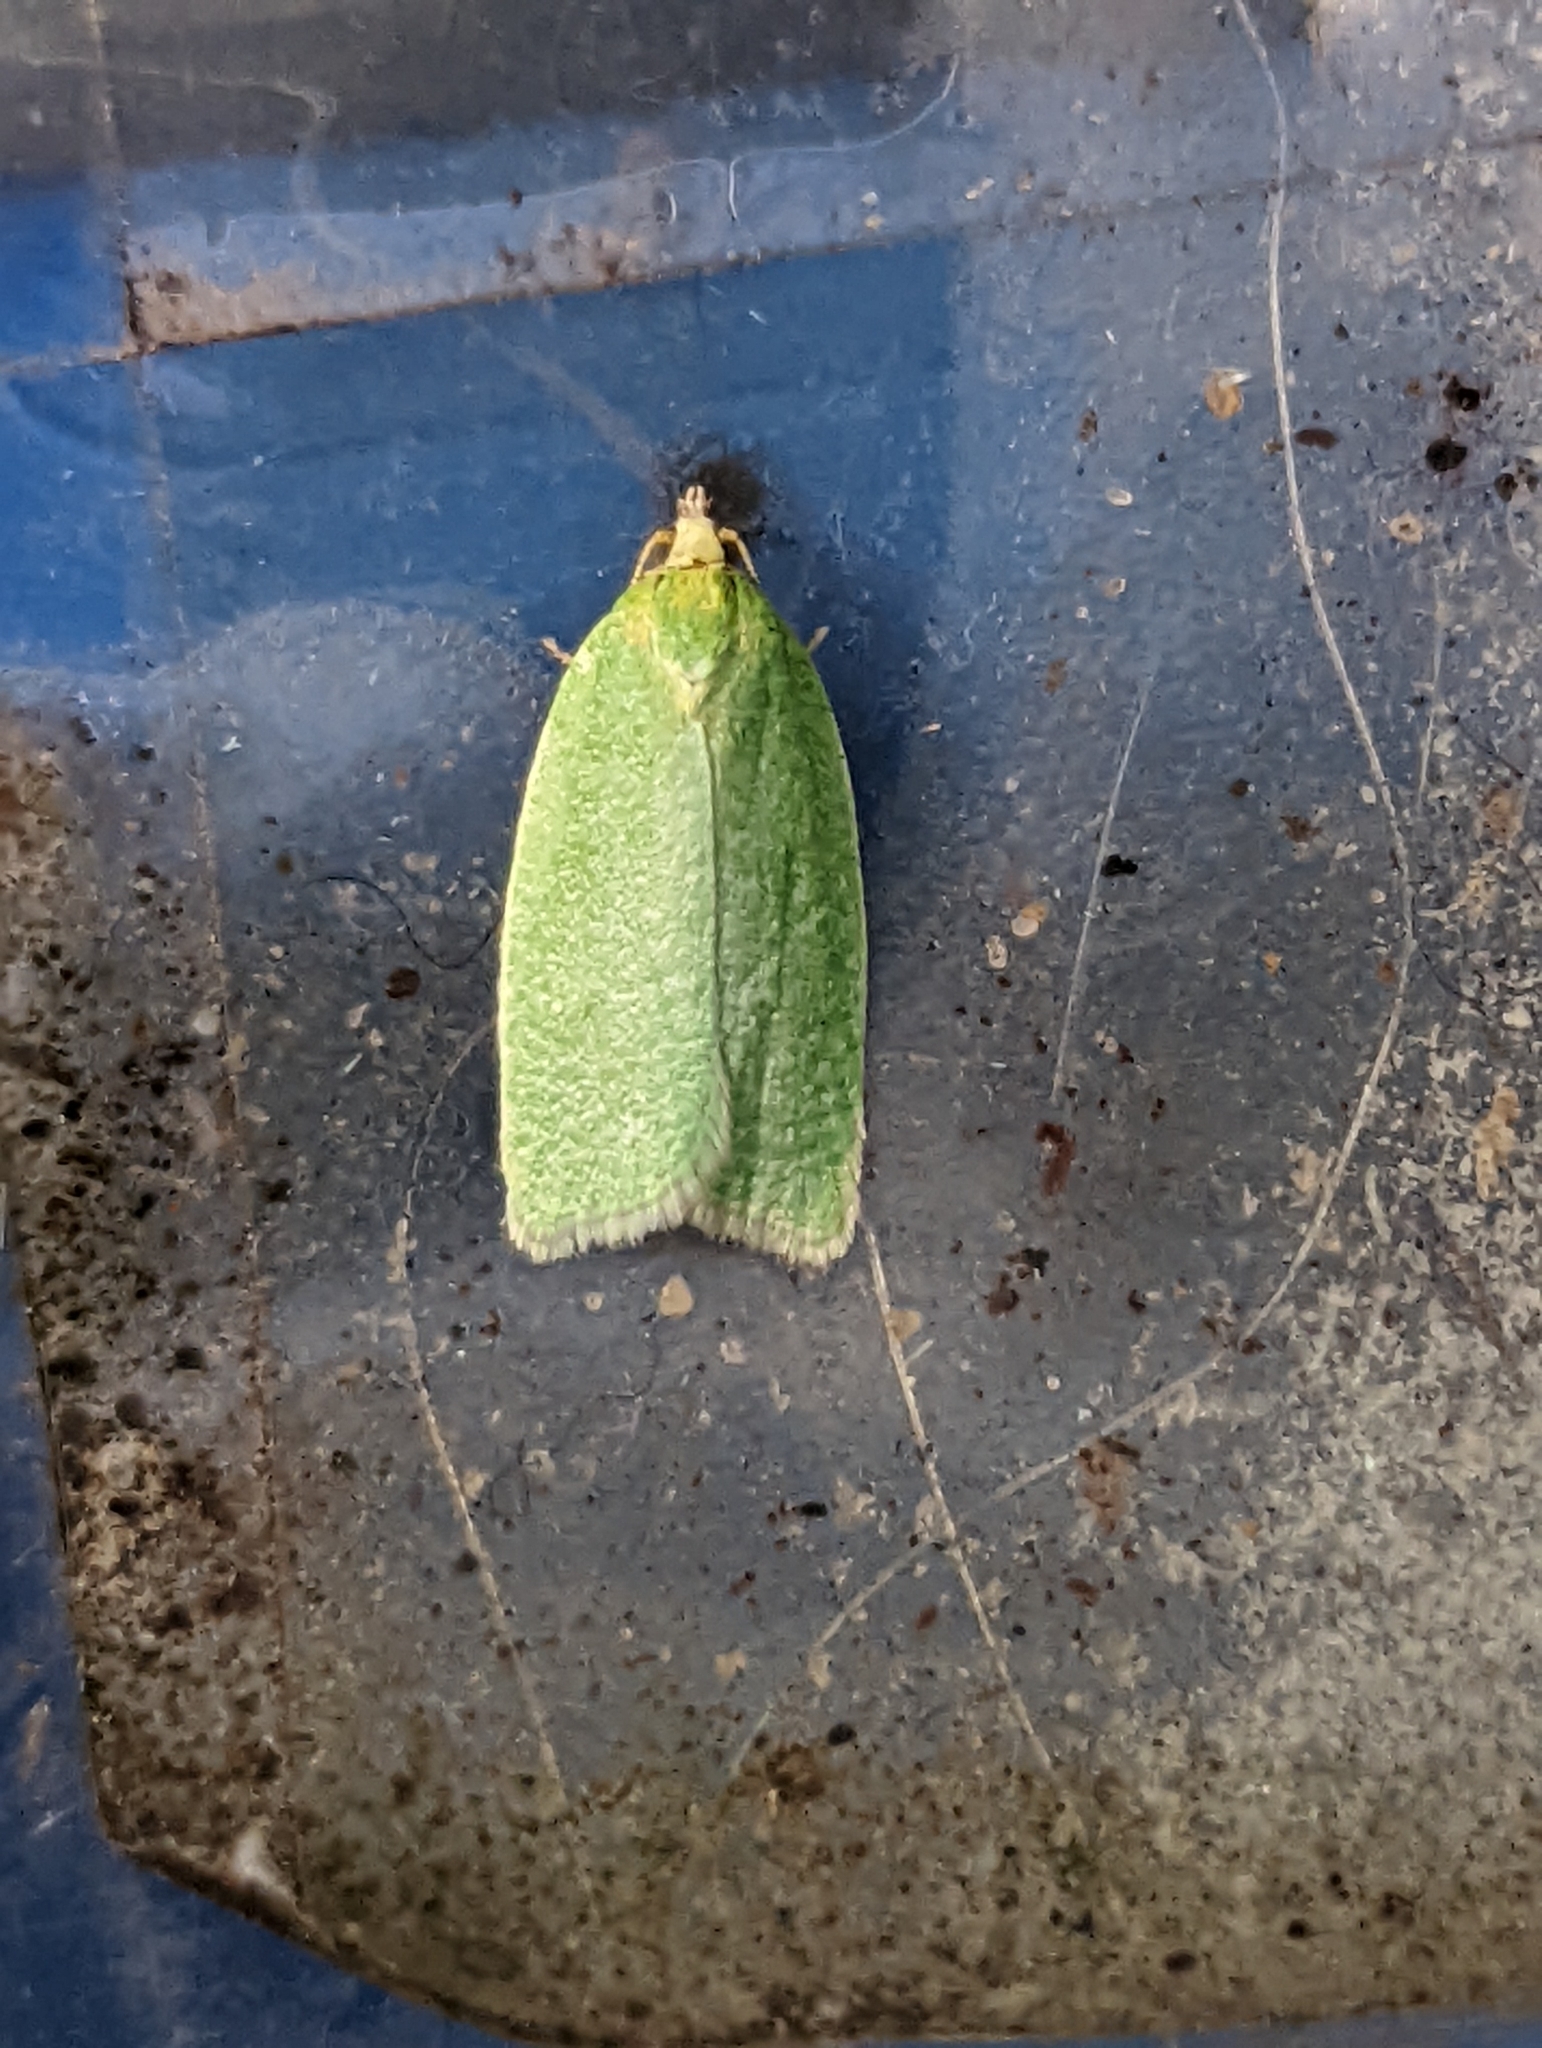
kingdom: Animalia
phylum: Arthropoda
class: Insecta
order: Lepidoptera
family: Tortricidae
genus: Tortrix
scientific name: Tortrix viridana
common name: Green oak tortrix
